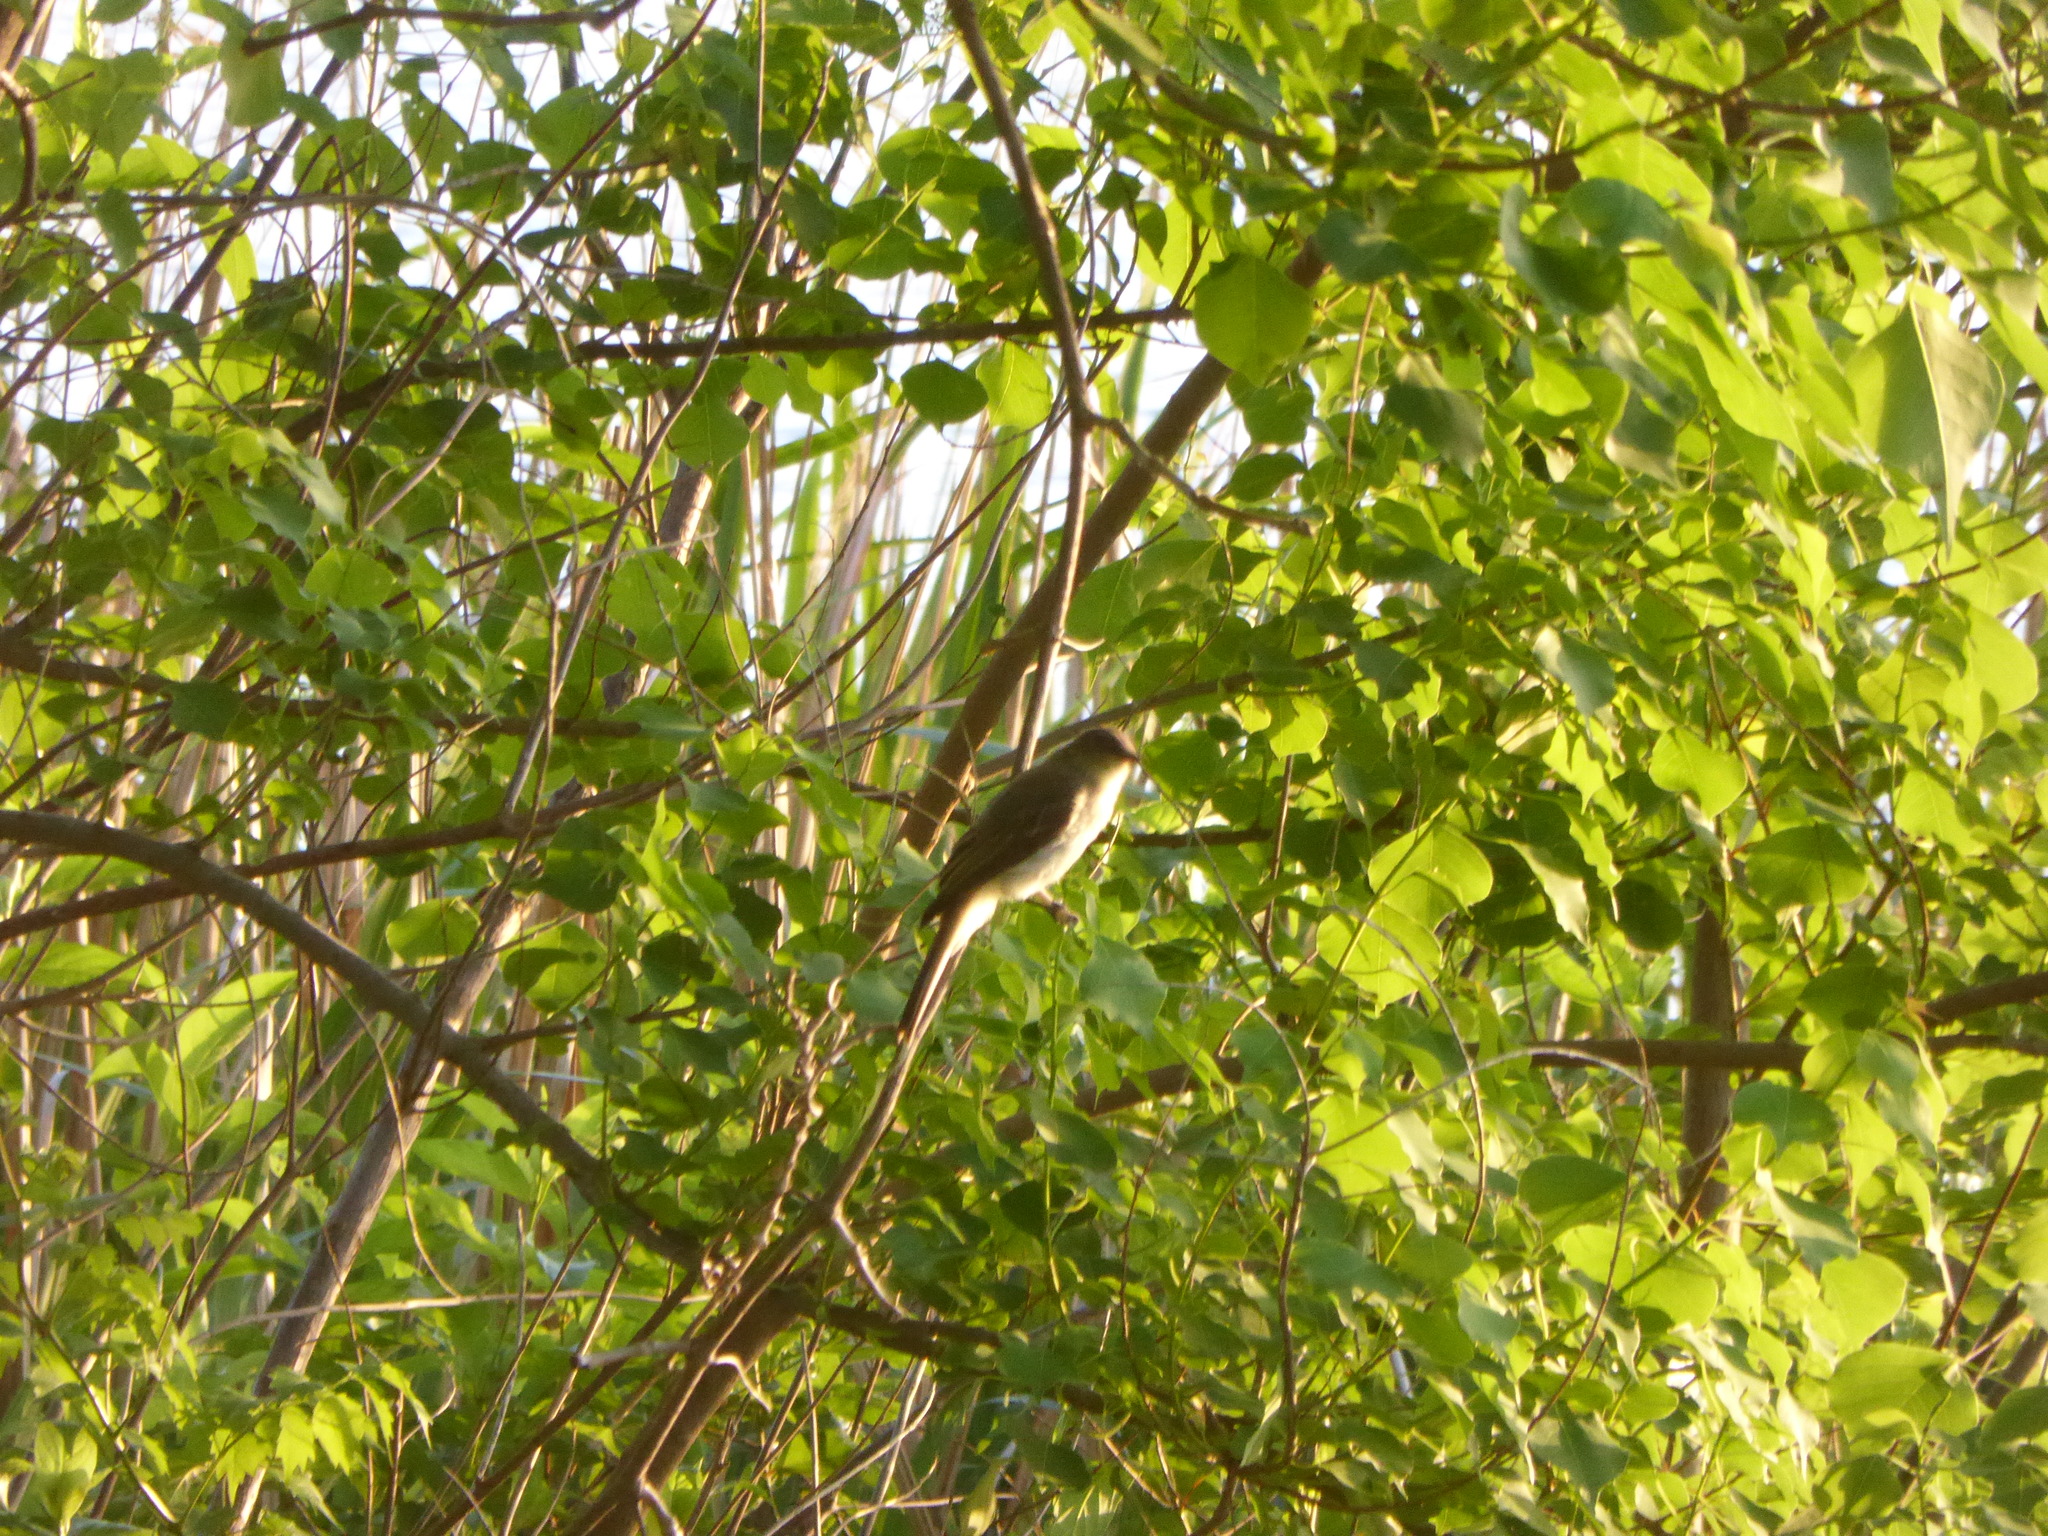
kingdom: Animalia
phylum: Chordata
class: Aves
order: Cuculiformes
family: Cuculidae
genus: Coccyzus
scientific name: Coccyzus americanus
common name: Yellow-billed cuckoo
